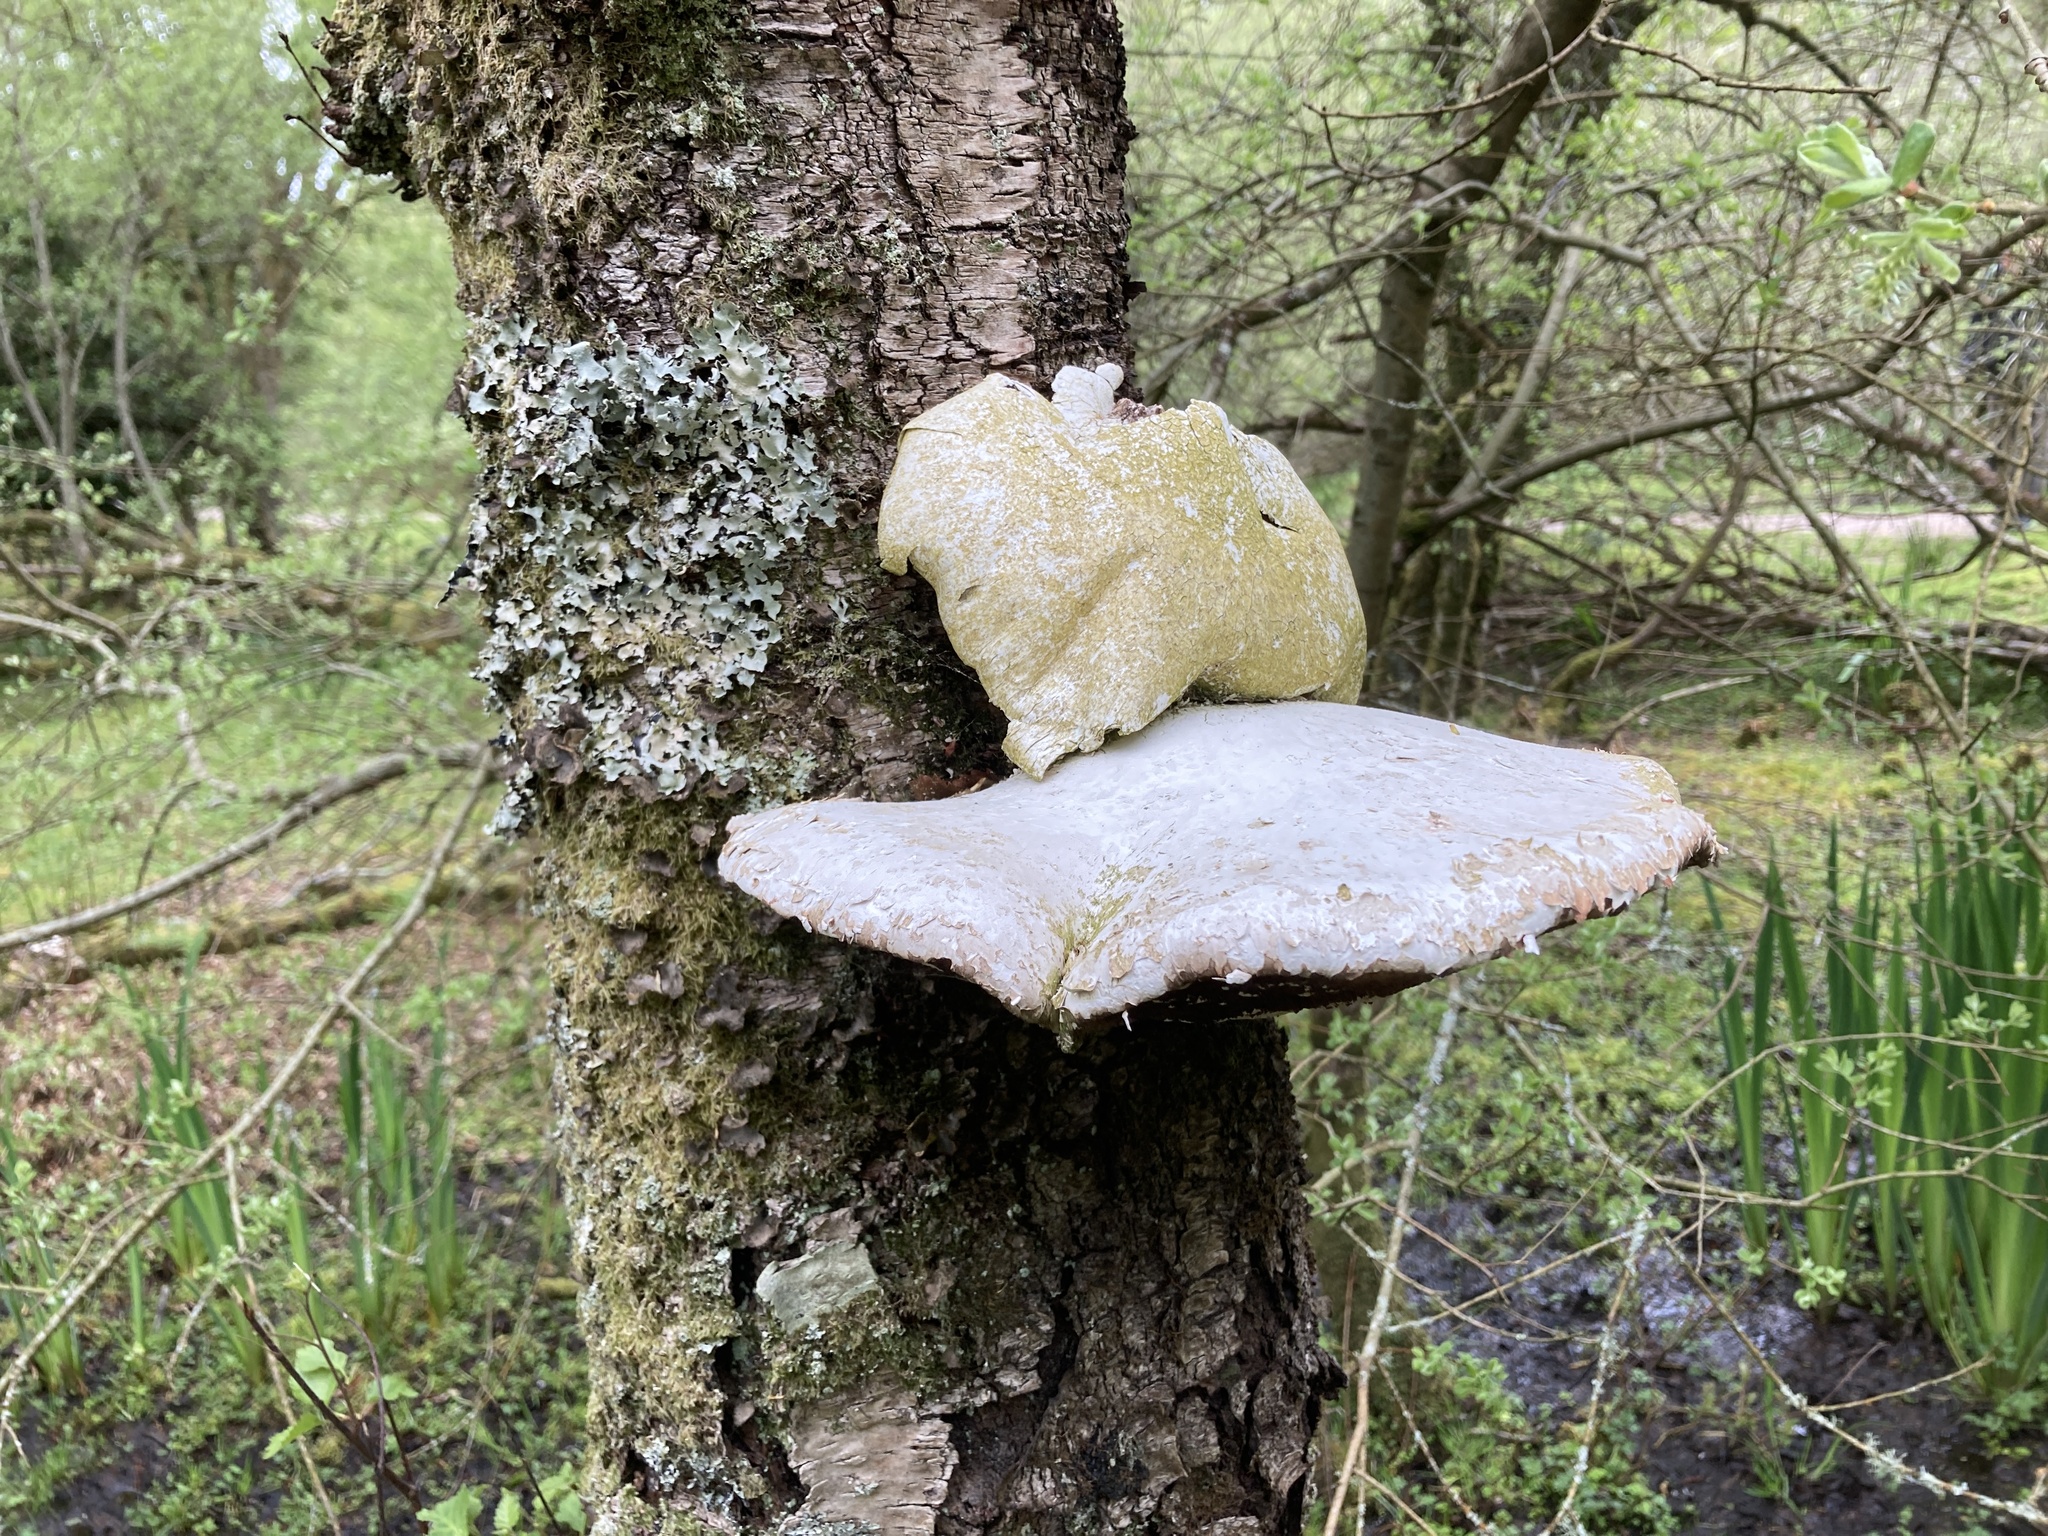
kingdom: Fungi
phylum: Basidiomycota
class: Agaricomycetes
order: Polyporales
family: Fomitopsidaceae
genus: Fomitopsis
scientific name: Fomitopsis betulina
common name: Birch polypore
